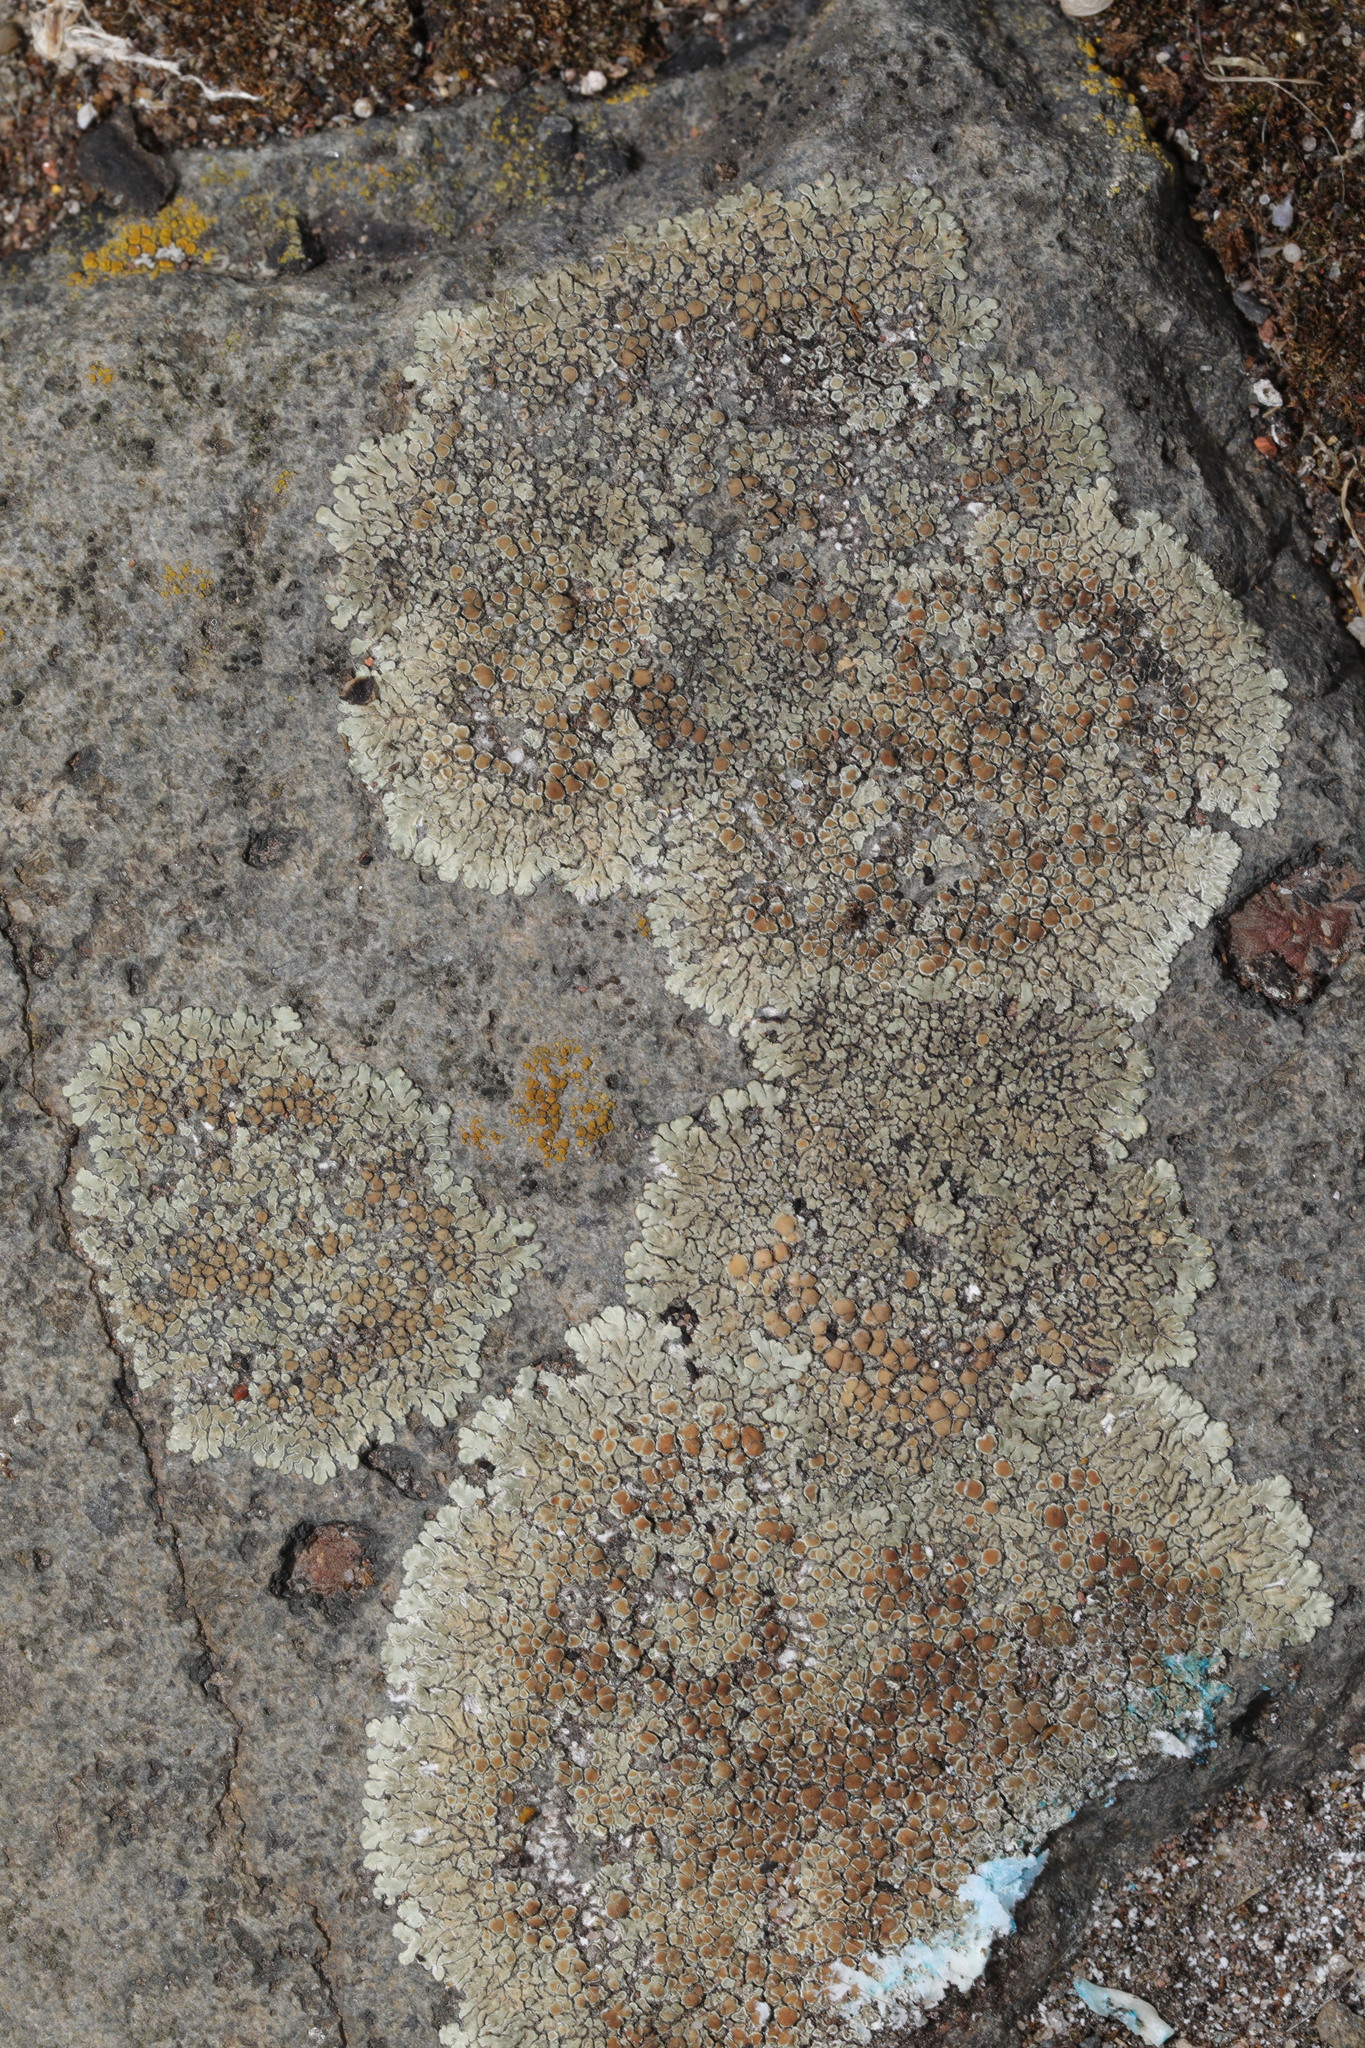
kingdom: Fungi
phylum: Ascomycota
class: Lecanoromycetes
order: Lecanorales
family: Lecanoraceae
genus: Protoparmeliopsis
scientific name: Protoparmeliopsis muralis
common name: Stonewall rim lichen
